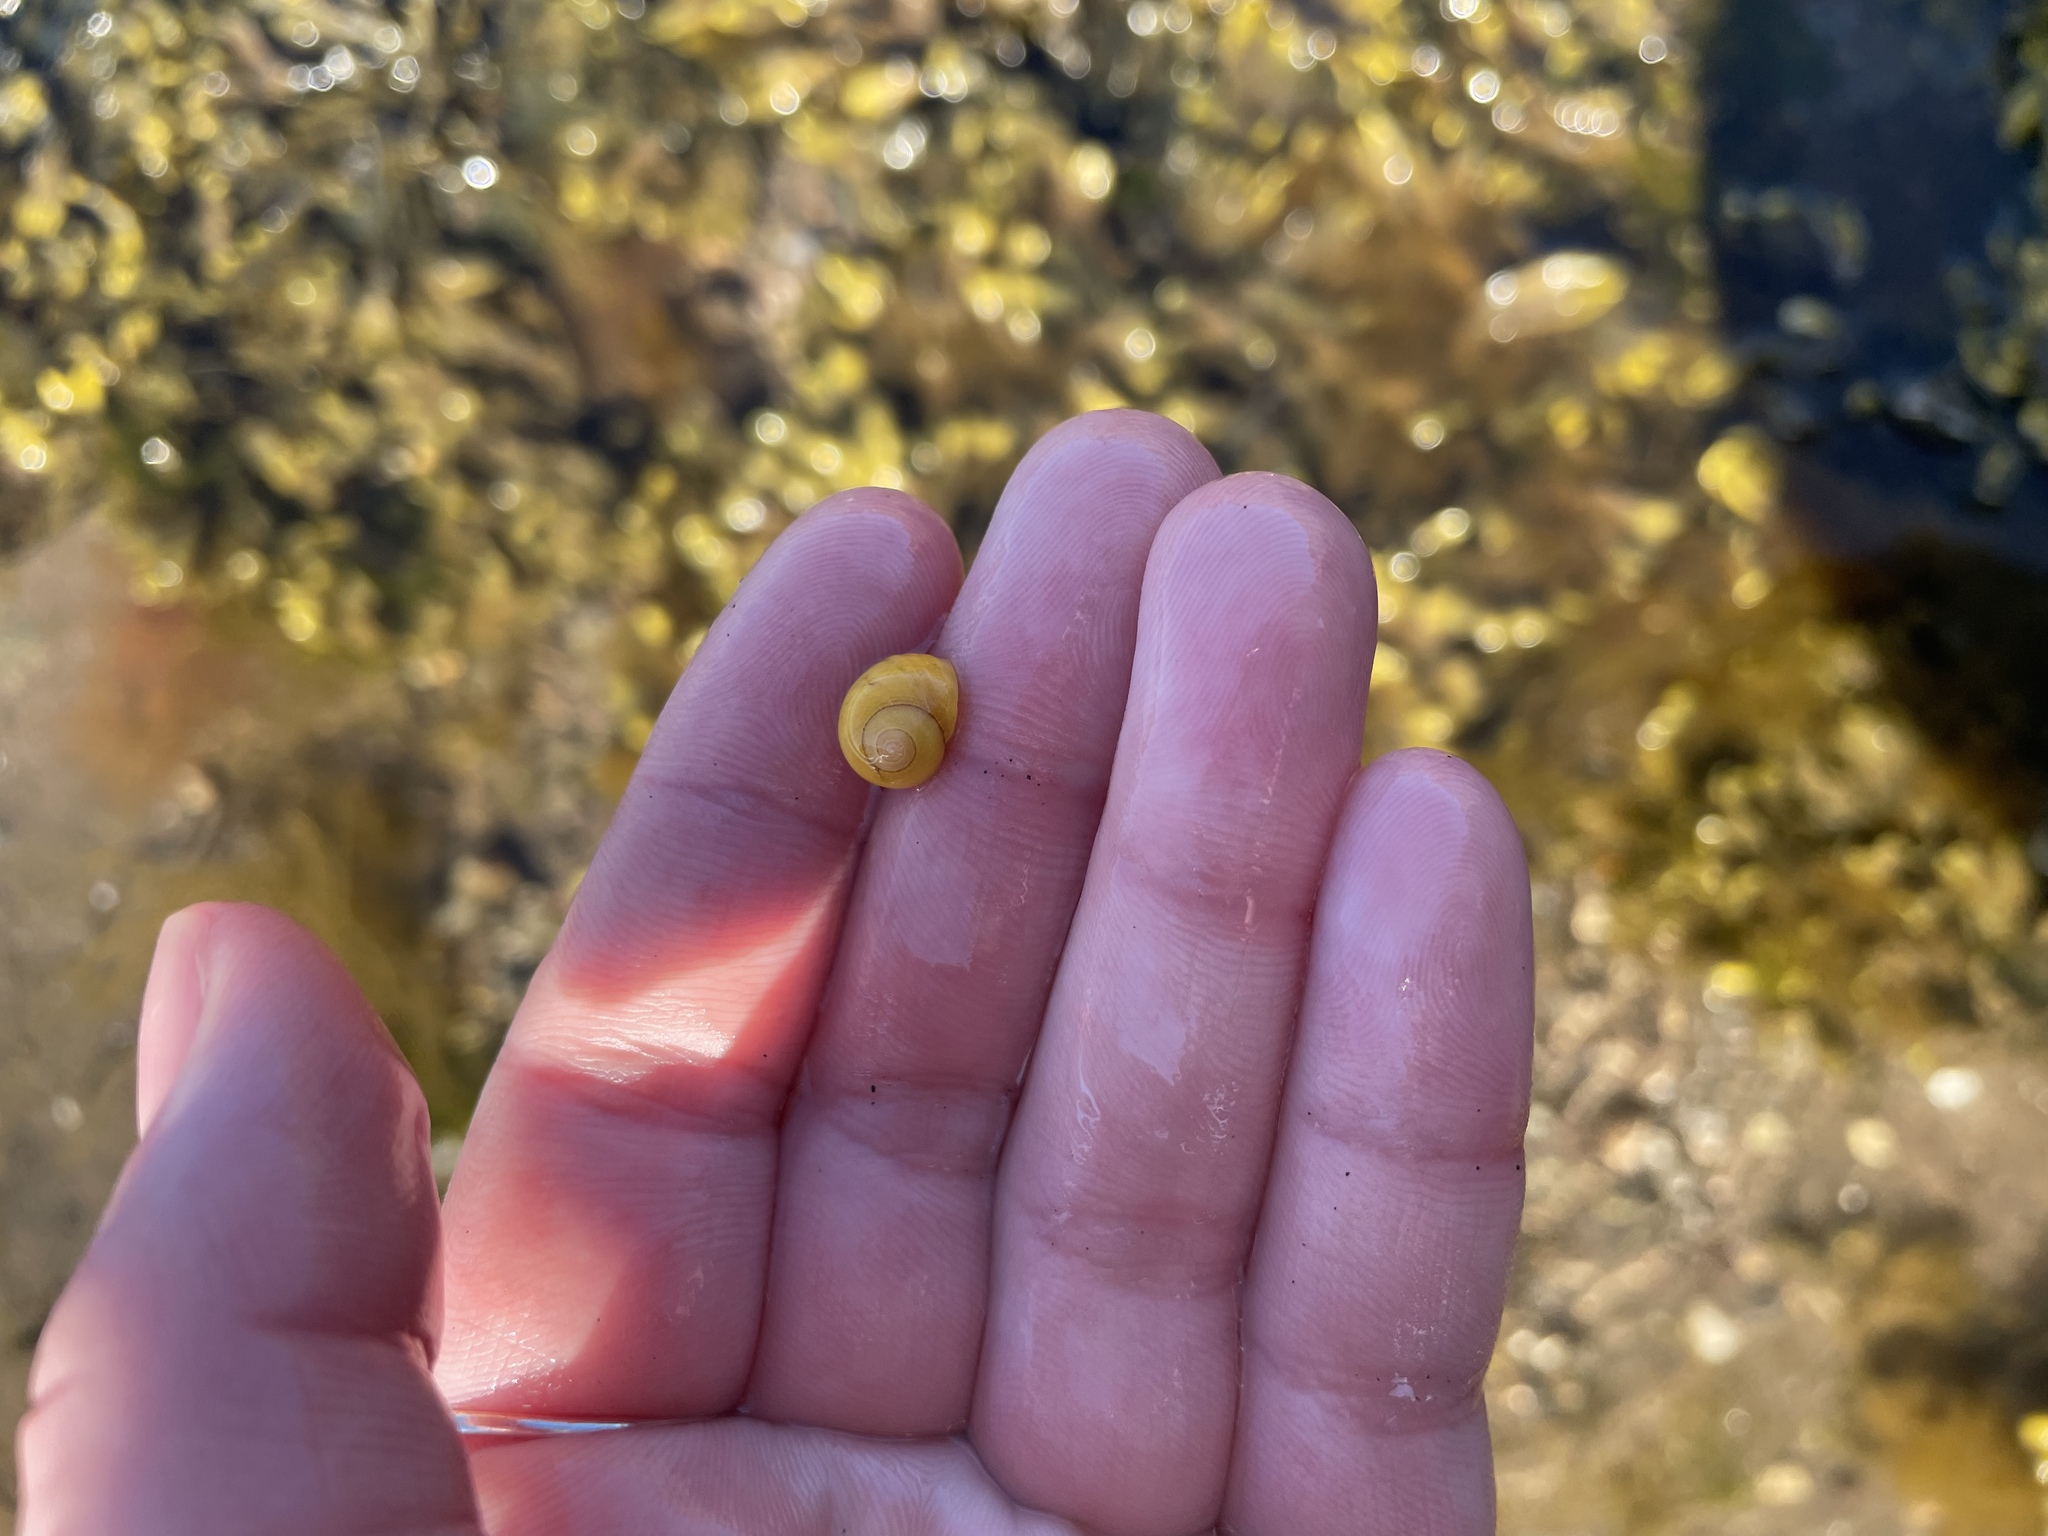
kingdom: Animalia
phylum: Mollusca
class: Gastropoda
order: Littorinimorpha
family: Littorinidae
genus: Littorina
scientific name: Littorina obtusata
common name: Flat periwinkle
